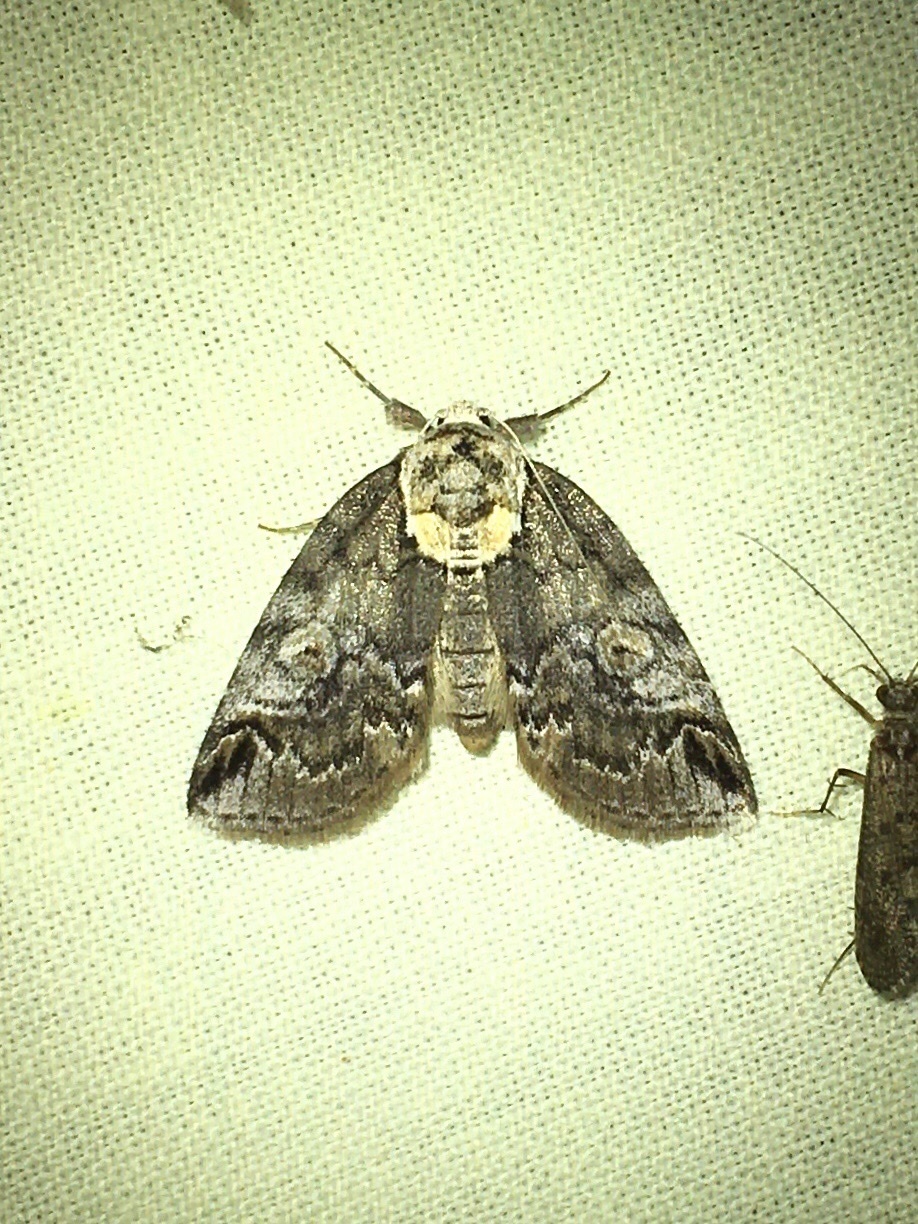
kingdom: Animalia
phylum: Arthropoda
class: Insecta
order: Lepidoptera
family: Nolidae
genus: Baileya
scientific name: Baileya ophthalmica
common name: Eyed baileya moth
